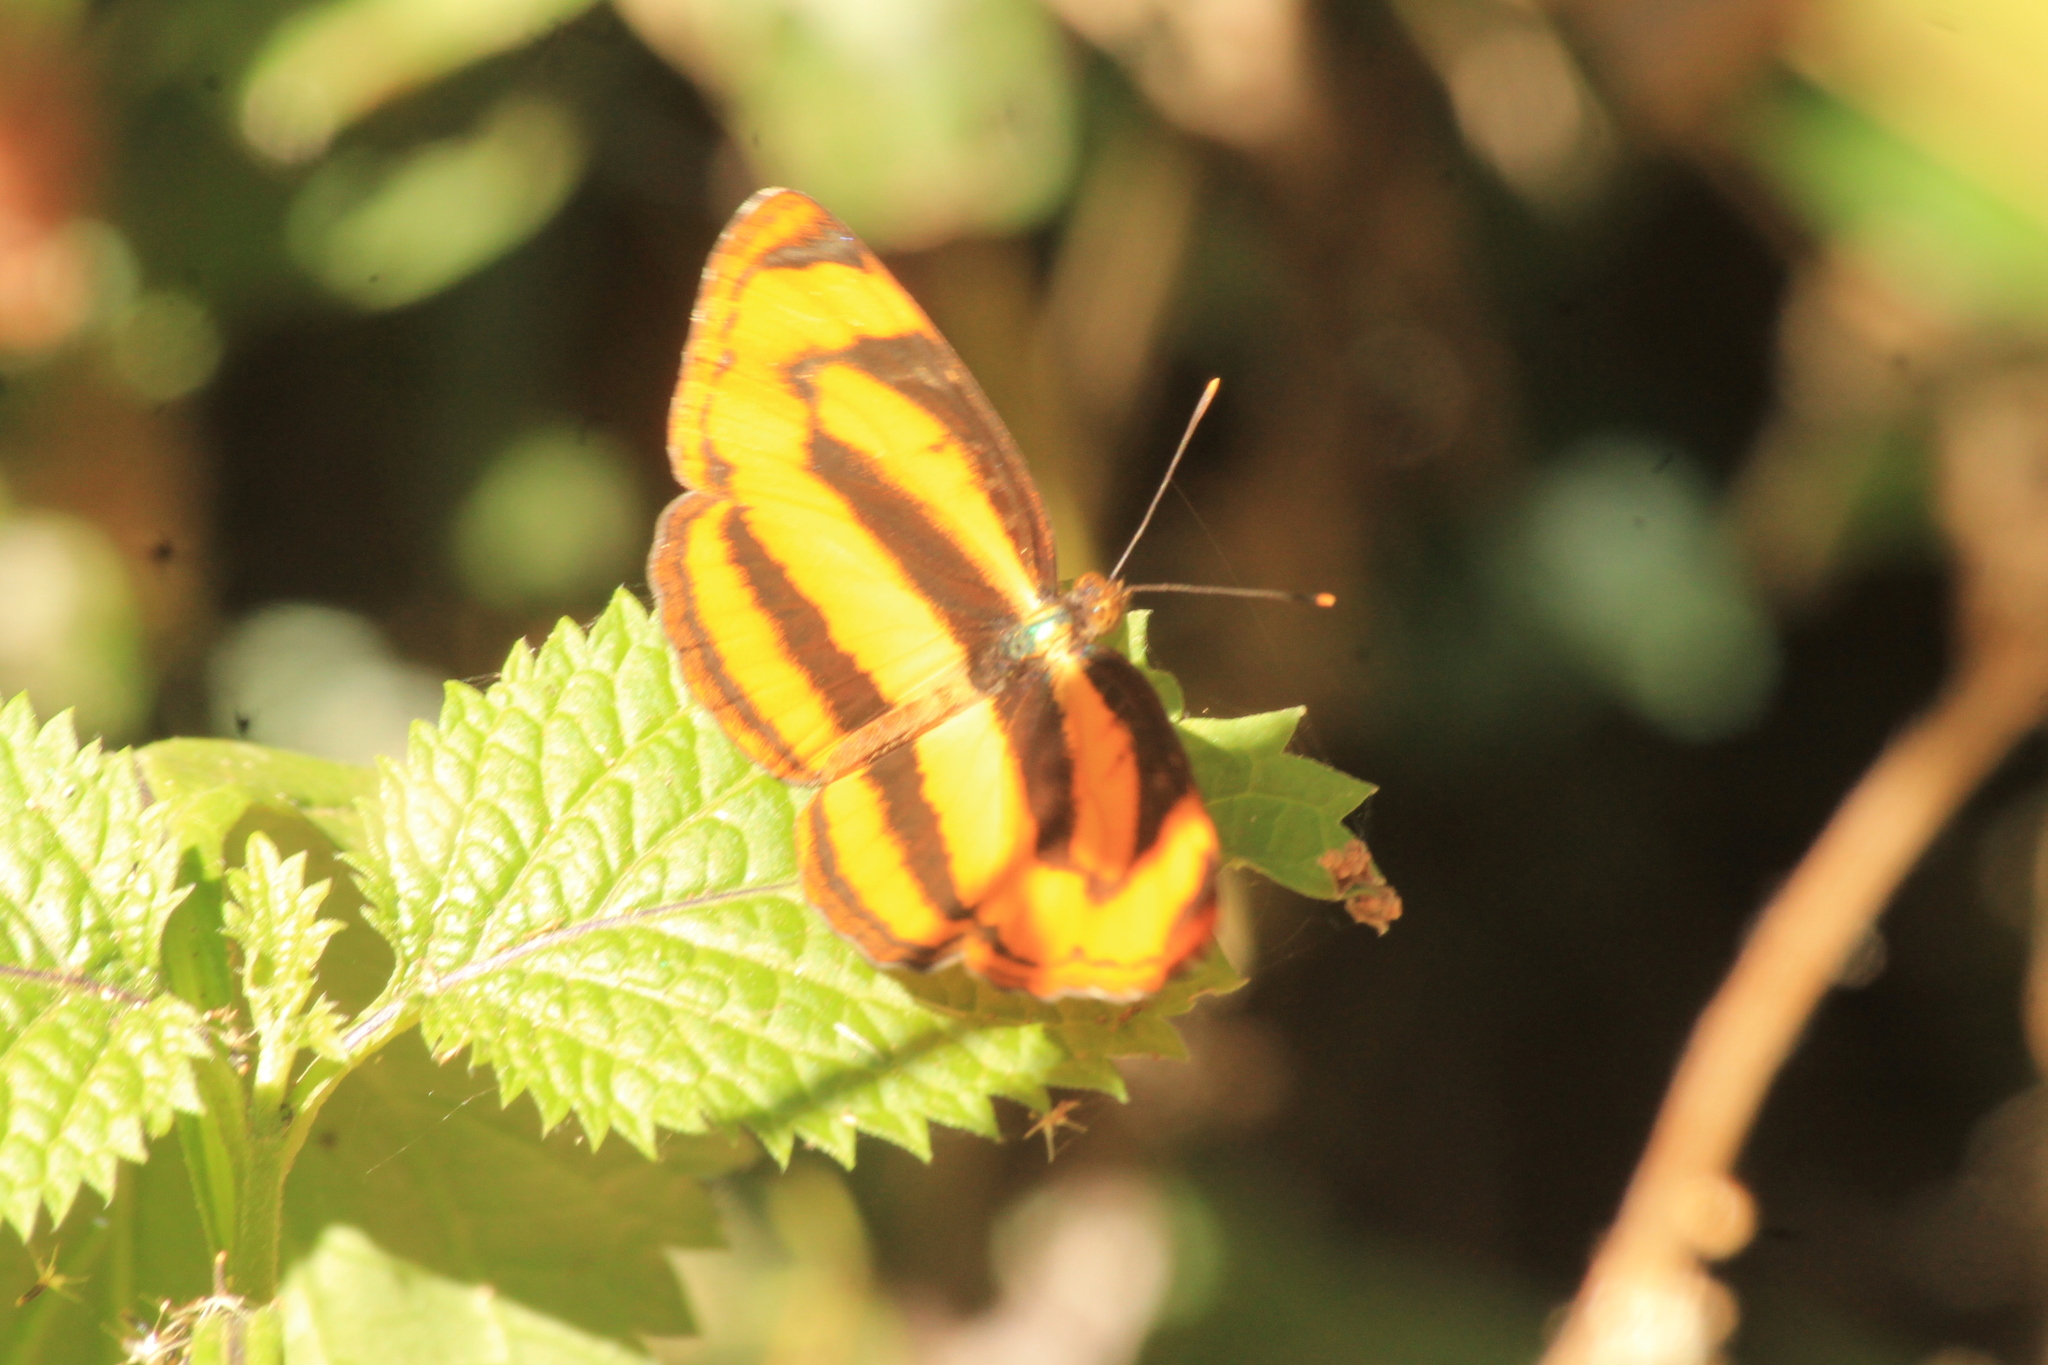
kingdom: Animalia
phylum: Arthropoda
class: Insecta
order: Lepidoptera
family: Nymphalidae
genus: Pantoporia
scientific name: Pantoporia hordonia
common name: Common lascar
